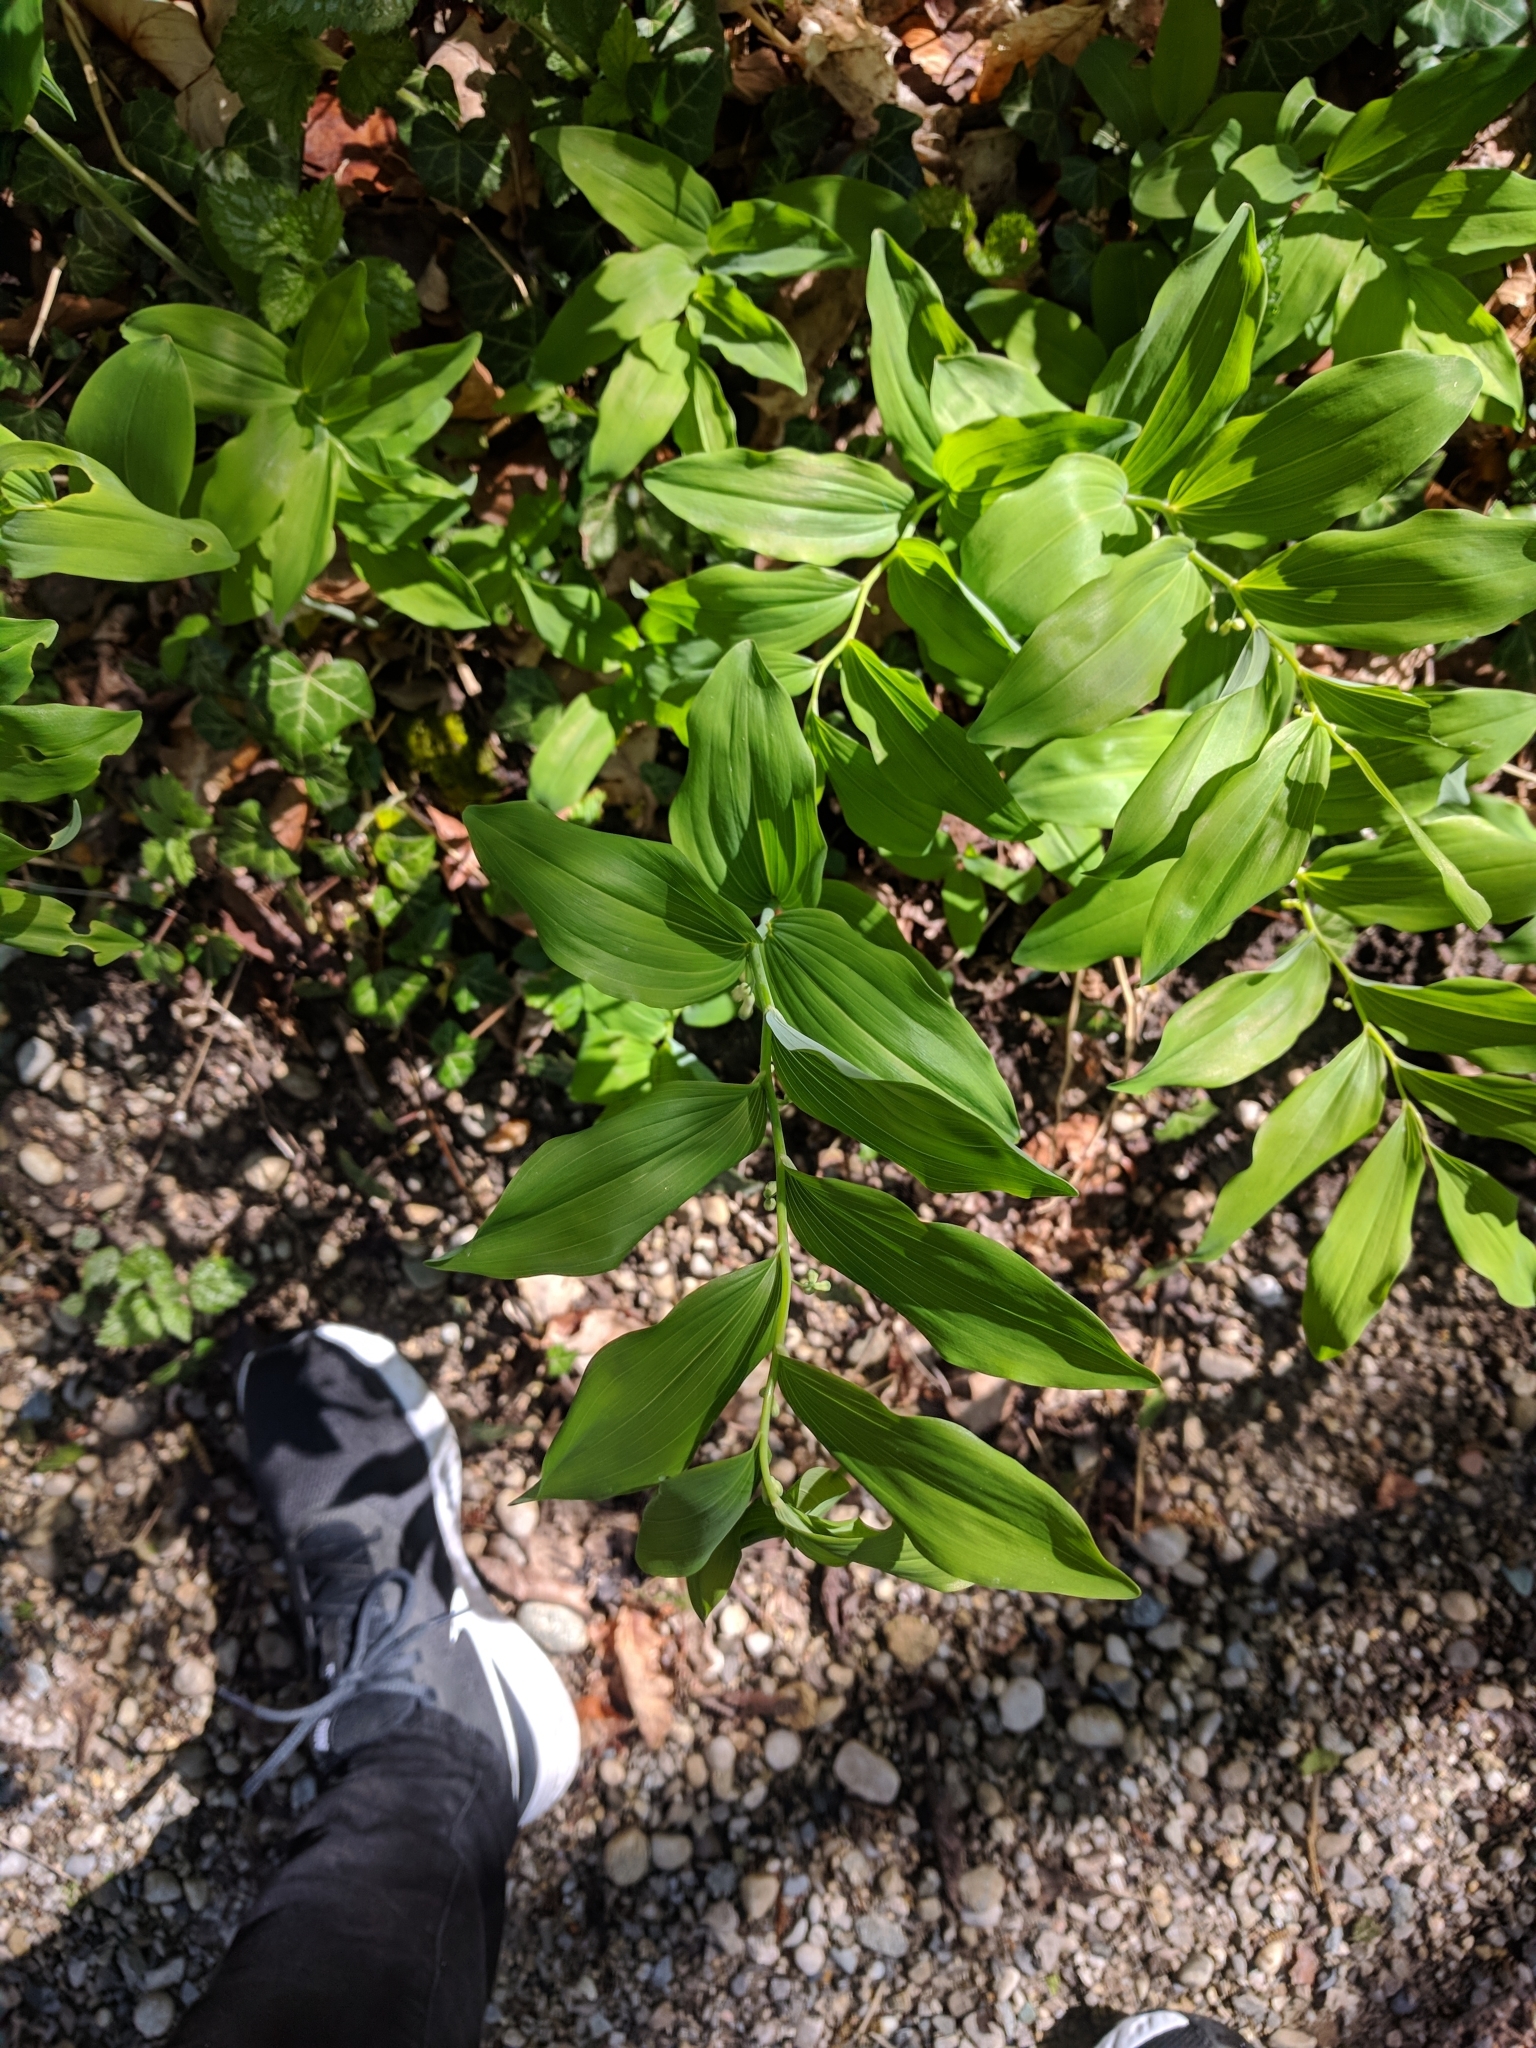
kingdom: Plantae
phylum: Tracheophyta
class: Liliopsida
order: Asparagales
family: Asparagaceae
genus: Polygonatum
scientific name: Polygonatum multiflorum
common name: Solomon's-seal
